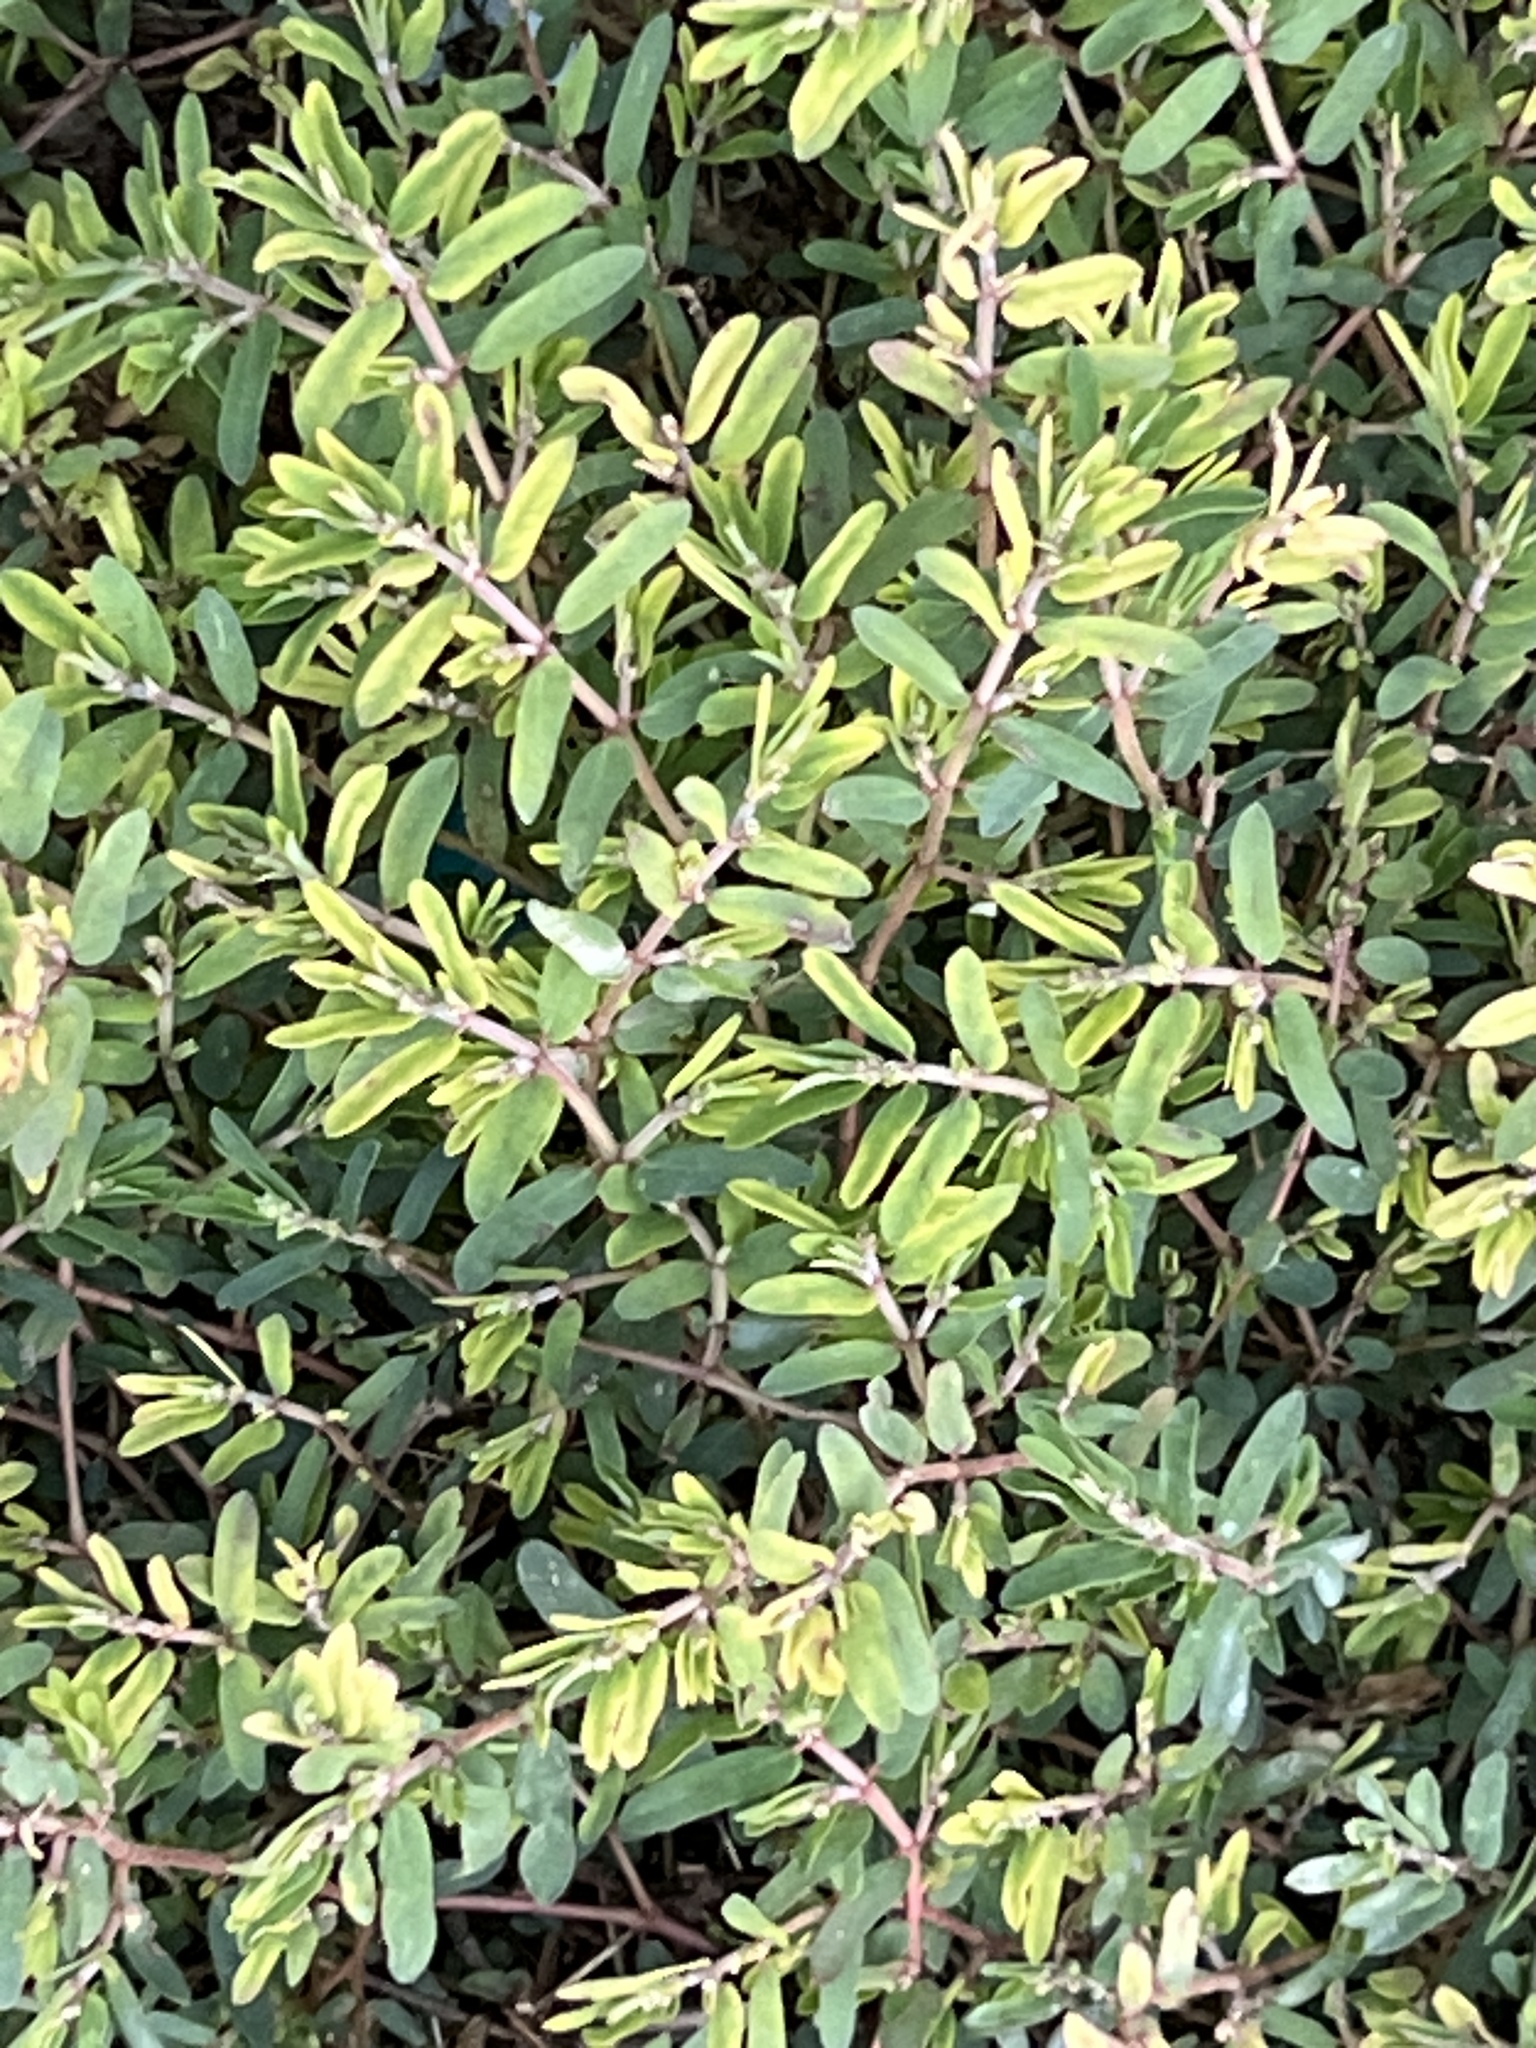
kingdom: Plantae
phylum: Tracheophyta
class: Magnoliopsida
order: Malpighiales
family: Euphorbiaceae
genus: Euphorbia
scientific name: Euphorbia maculata
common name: Spotted spurge
